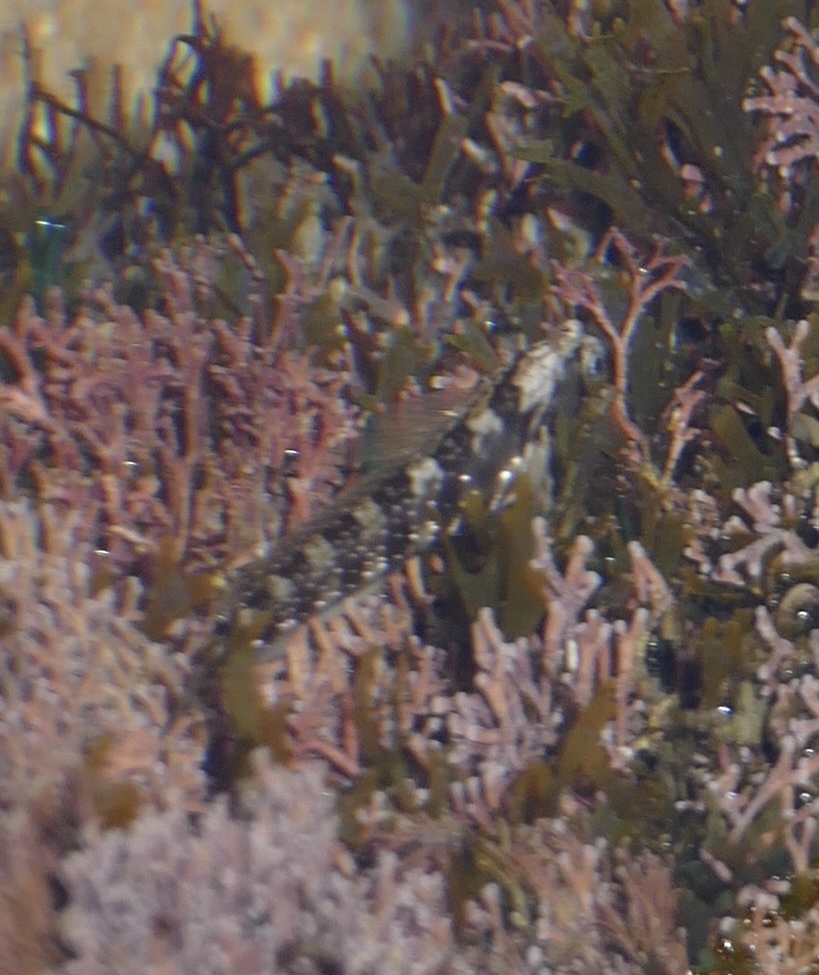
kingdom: Animalia
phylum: Chordata
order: Perciformes
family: Blenniidae
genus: Antennablennius
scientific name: Antennablennius bifilum
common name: Horned rockskipper
